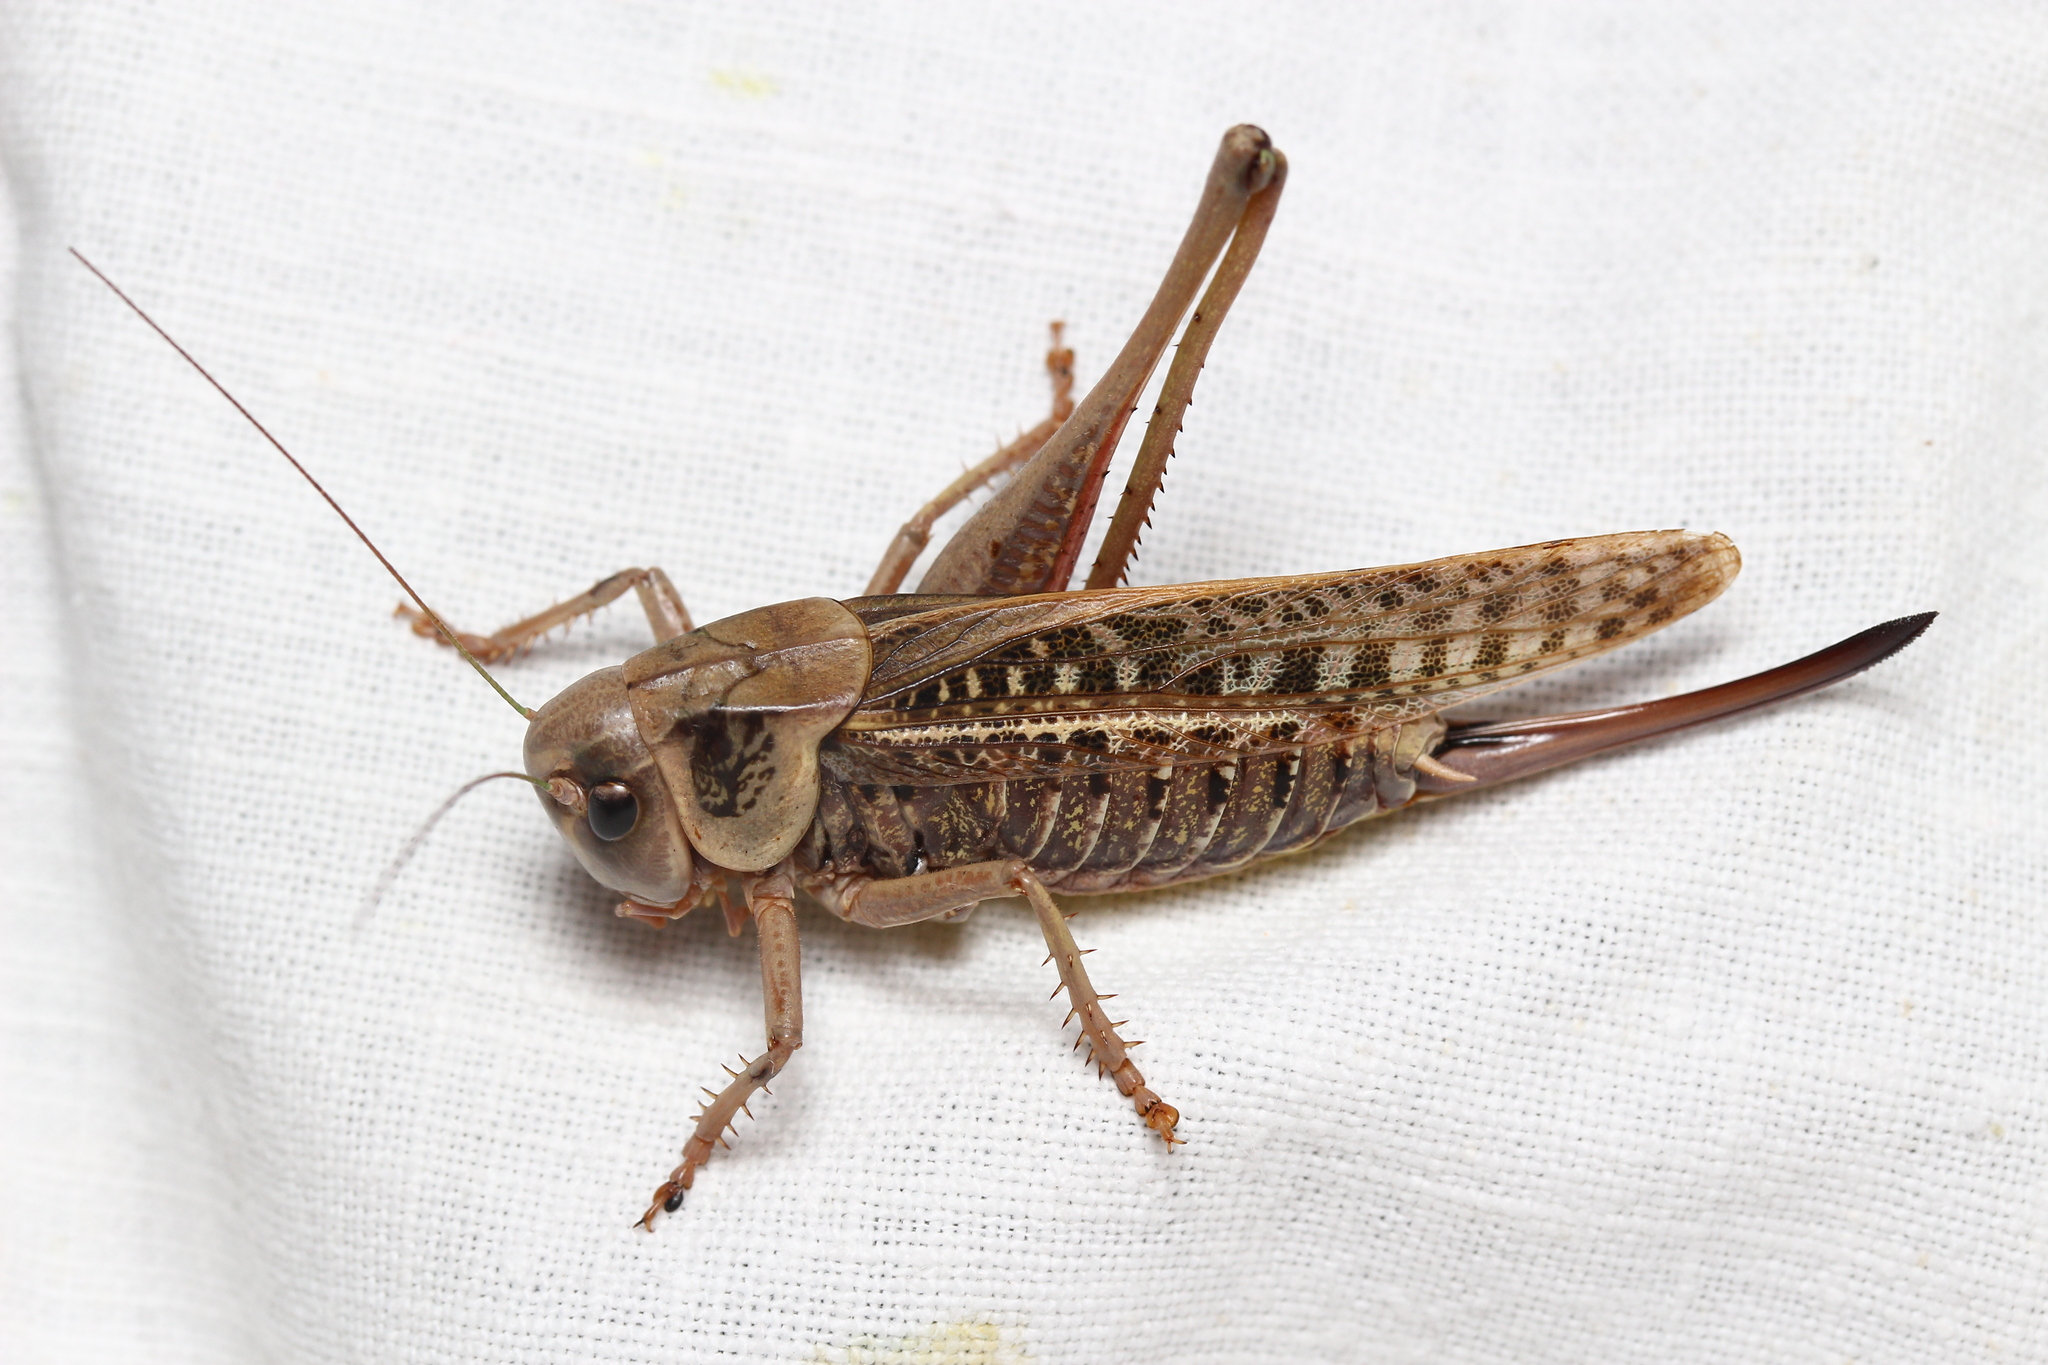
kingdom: Animalia
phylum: Arthropoda
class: Insecta
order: Orthoptera
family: Tettigoniidae
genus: Decticus
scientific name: Decticus verrucivorus
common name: Wart-biter
